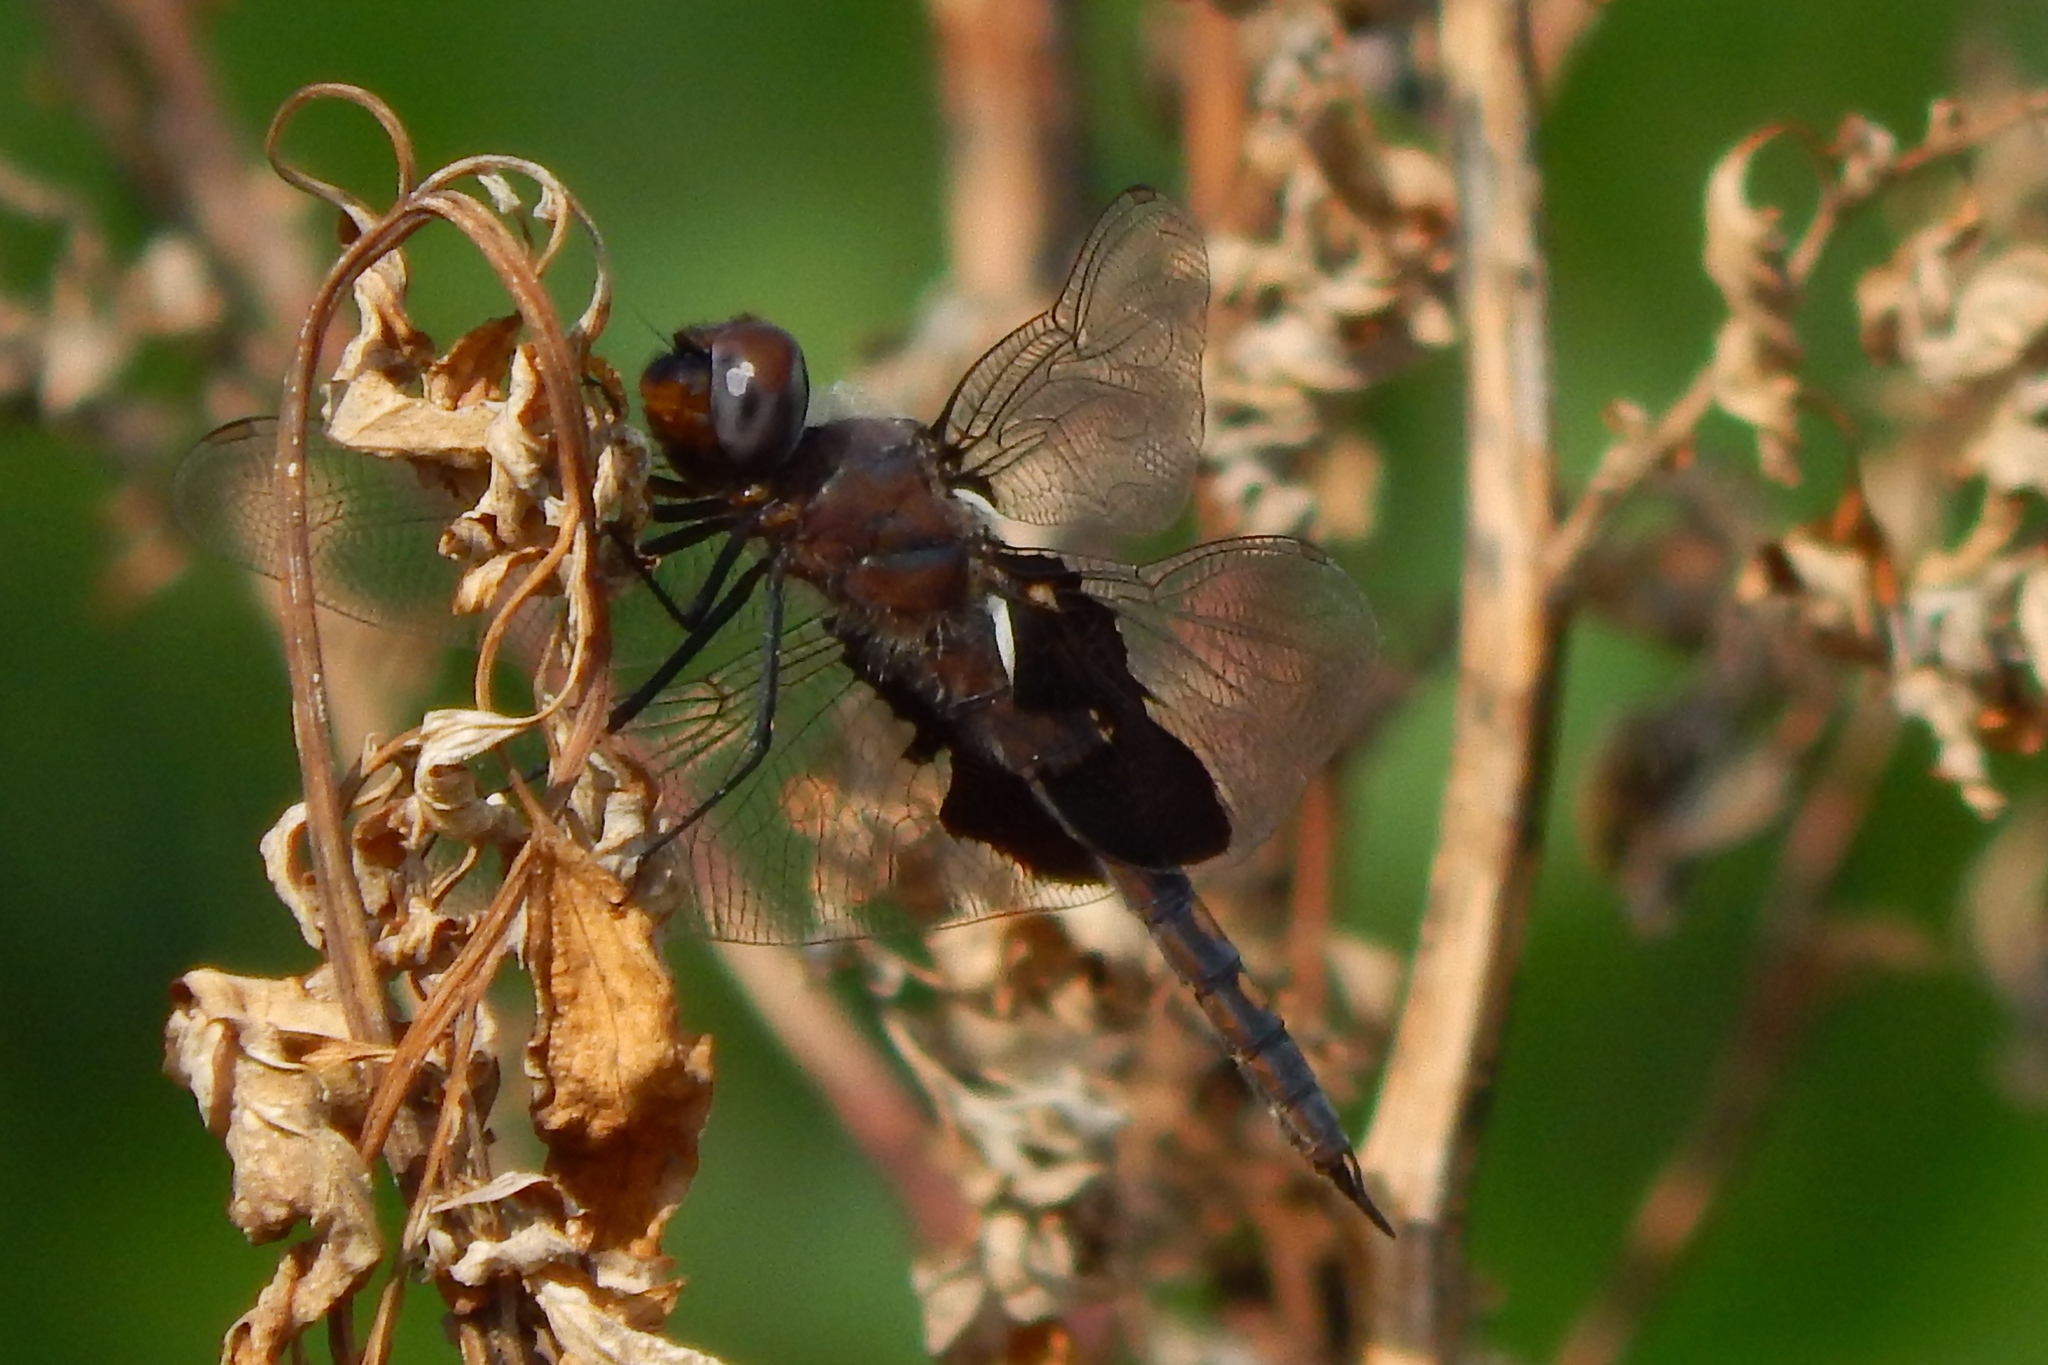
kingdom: Animalia
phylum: Arthropoda
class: Insecta
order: Odonata
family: Libellulidae
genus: Tramea
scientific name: Tramea lacerata
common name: Black saddlebags
